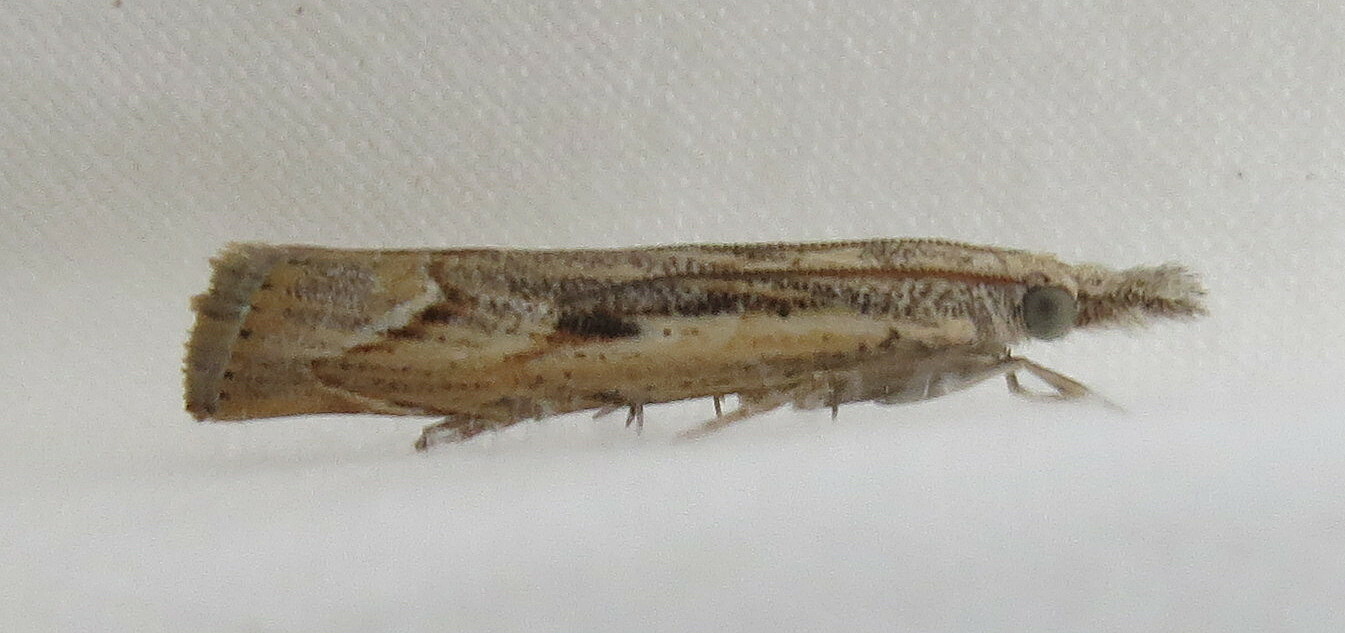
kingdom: Animalia
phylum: Arthropoda
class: Insecta
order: Lepidoptera
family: Crambidae
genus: Agriphila
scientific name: Agriphila geniculea
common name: Elbow-stripe grass-veneer
